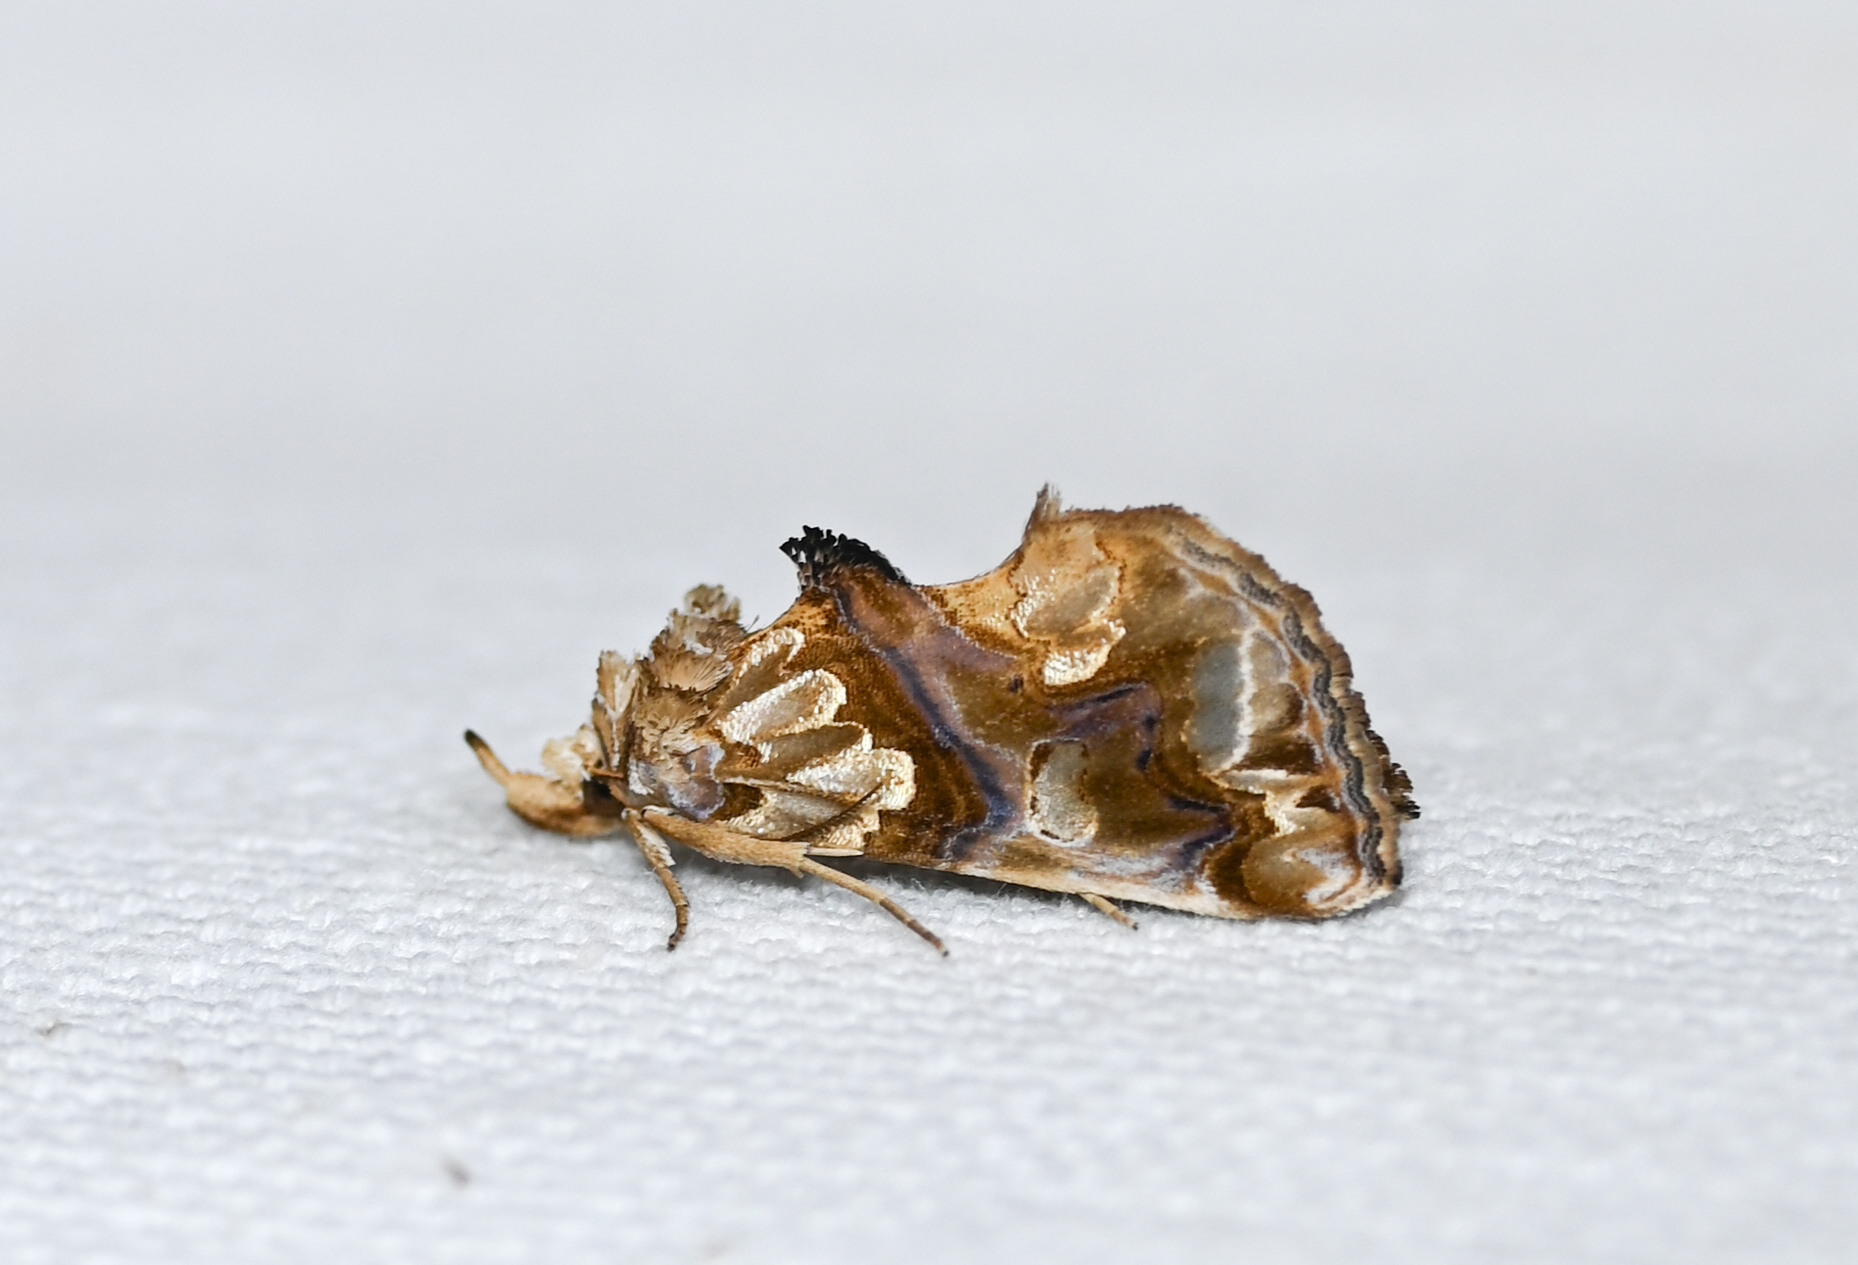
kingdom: Animalia
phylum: Arthropoda
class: Insecta
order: Lepidoptera
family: Erebidae
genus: Plusiodonta
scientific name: Plusiodonta compressipalpis
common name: Moonseed moth
